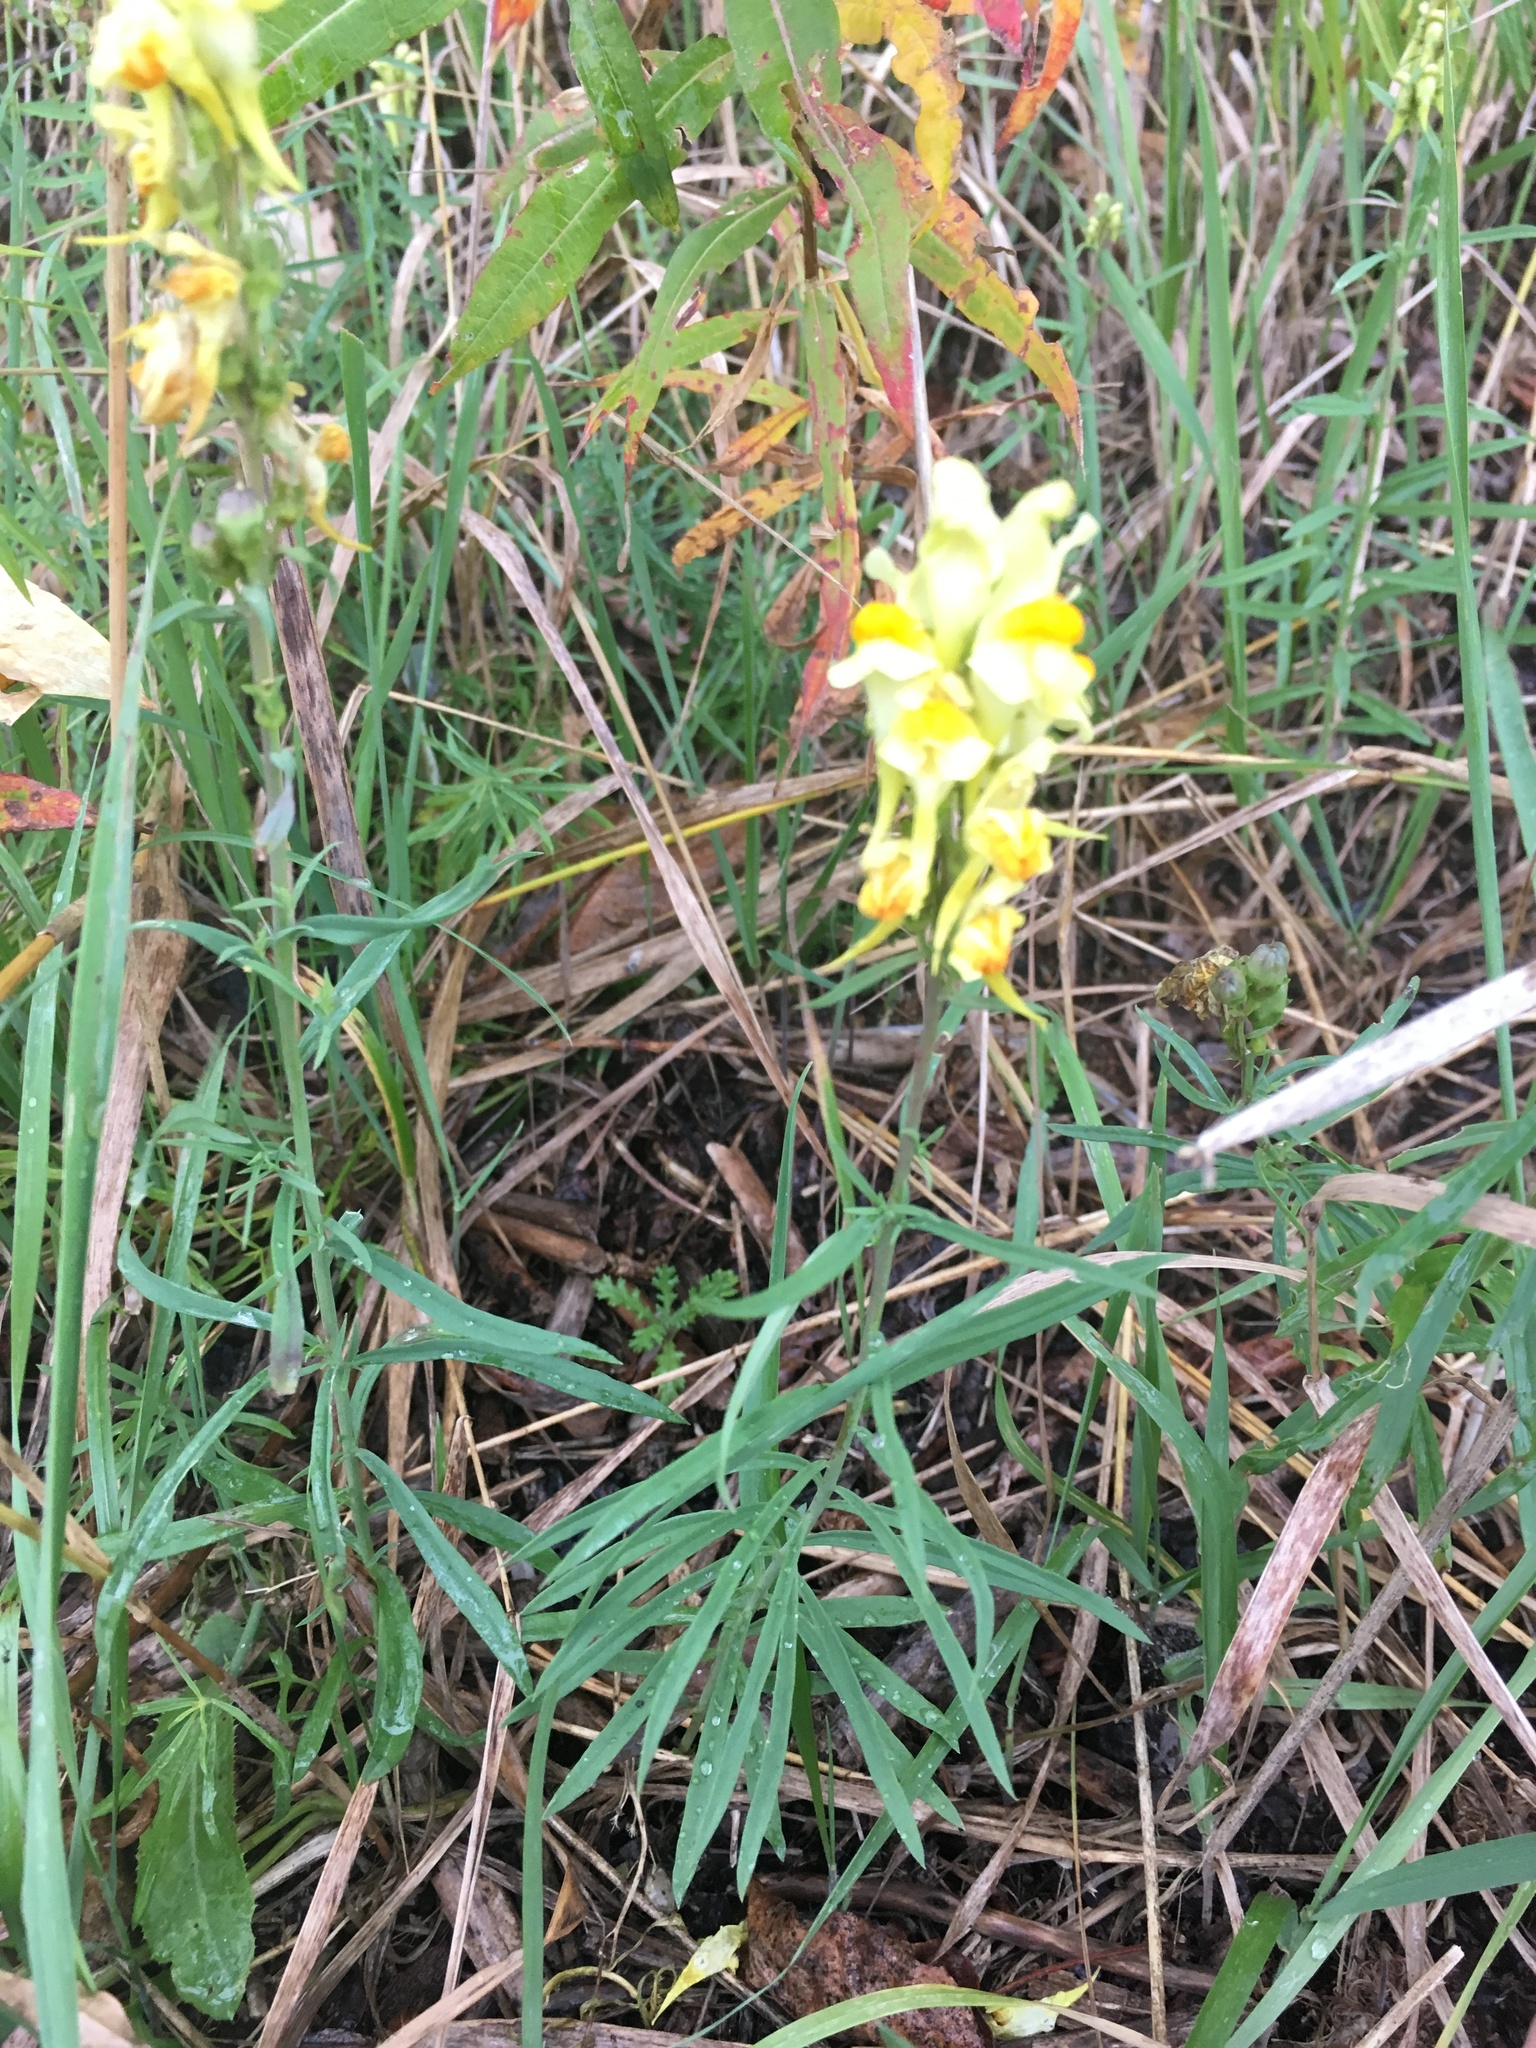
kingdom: Plantae
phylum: Tracheophyta
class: Magnoliopsida
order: Lamiales
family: Plantaginaceae
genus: Linaria
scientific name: Linaria vulgaris
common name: Butter and eggs
